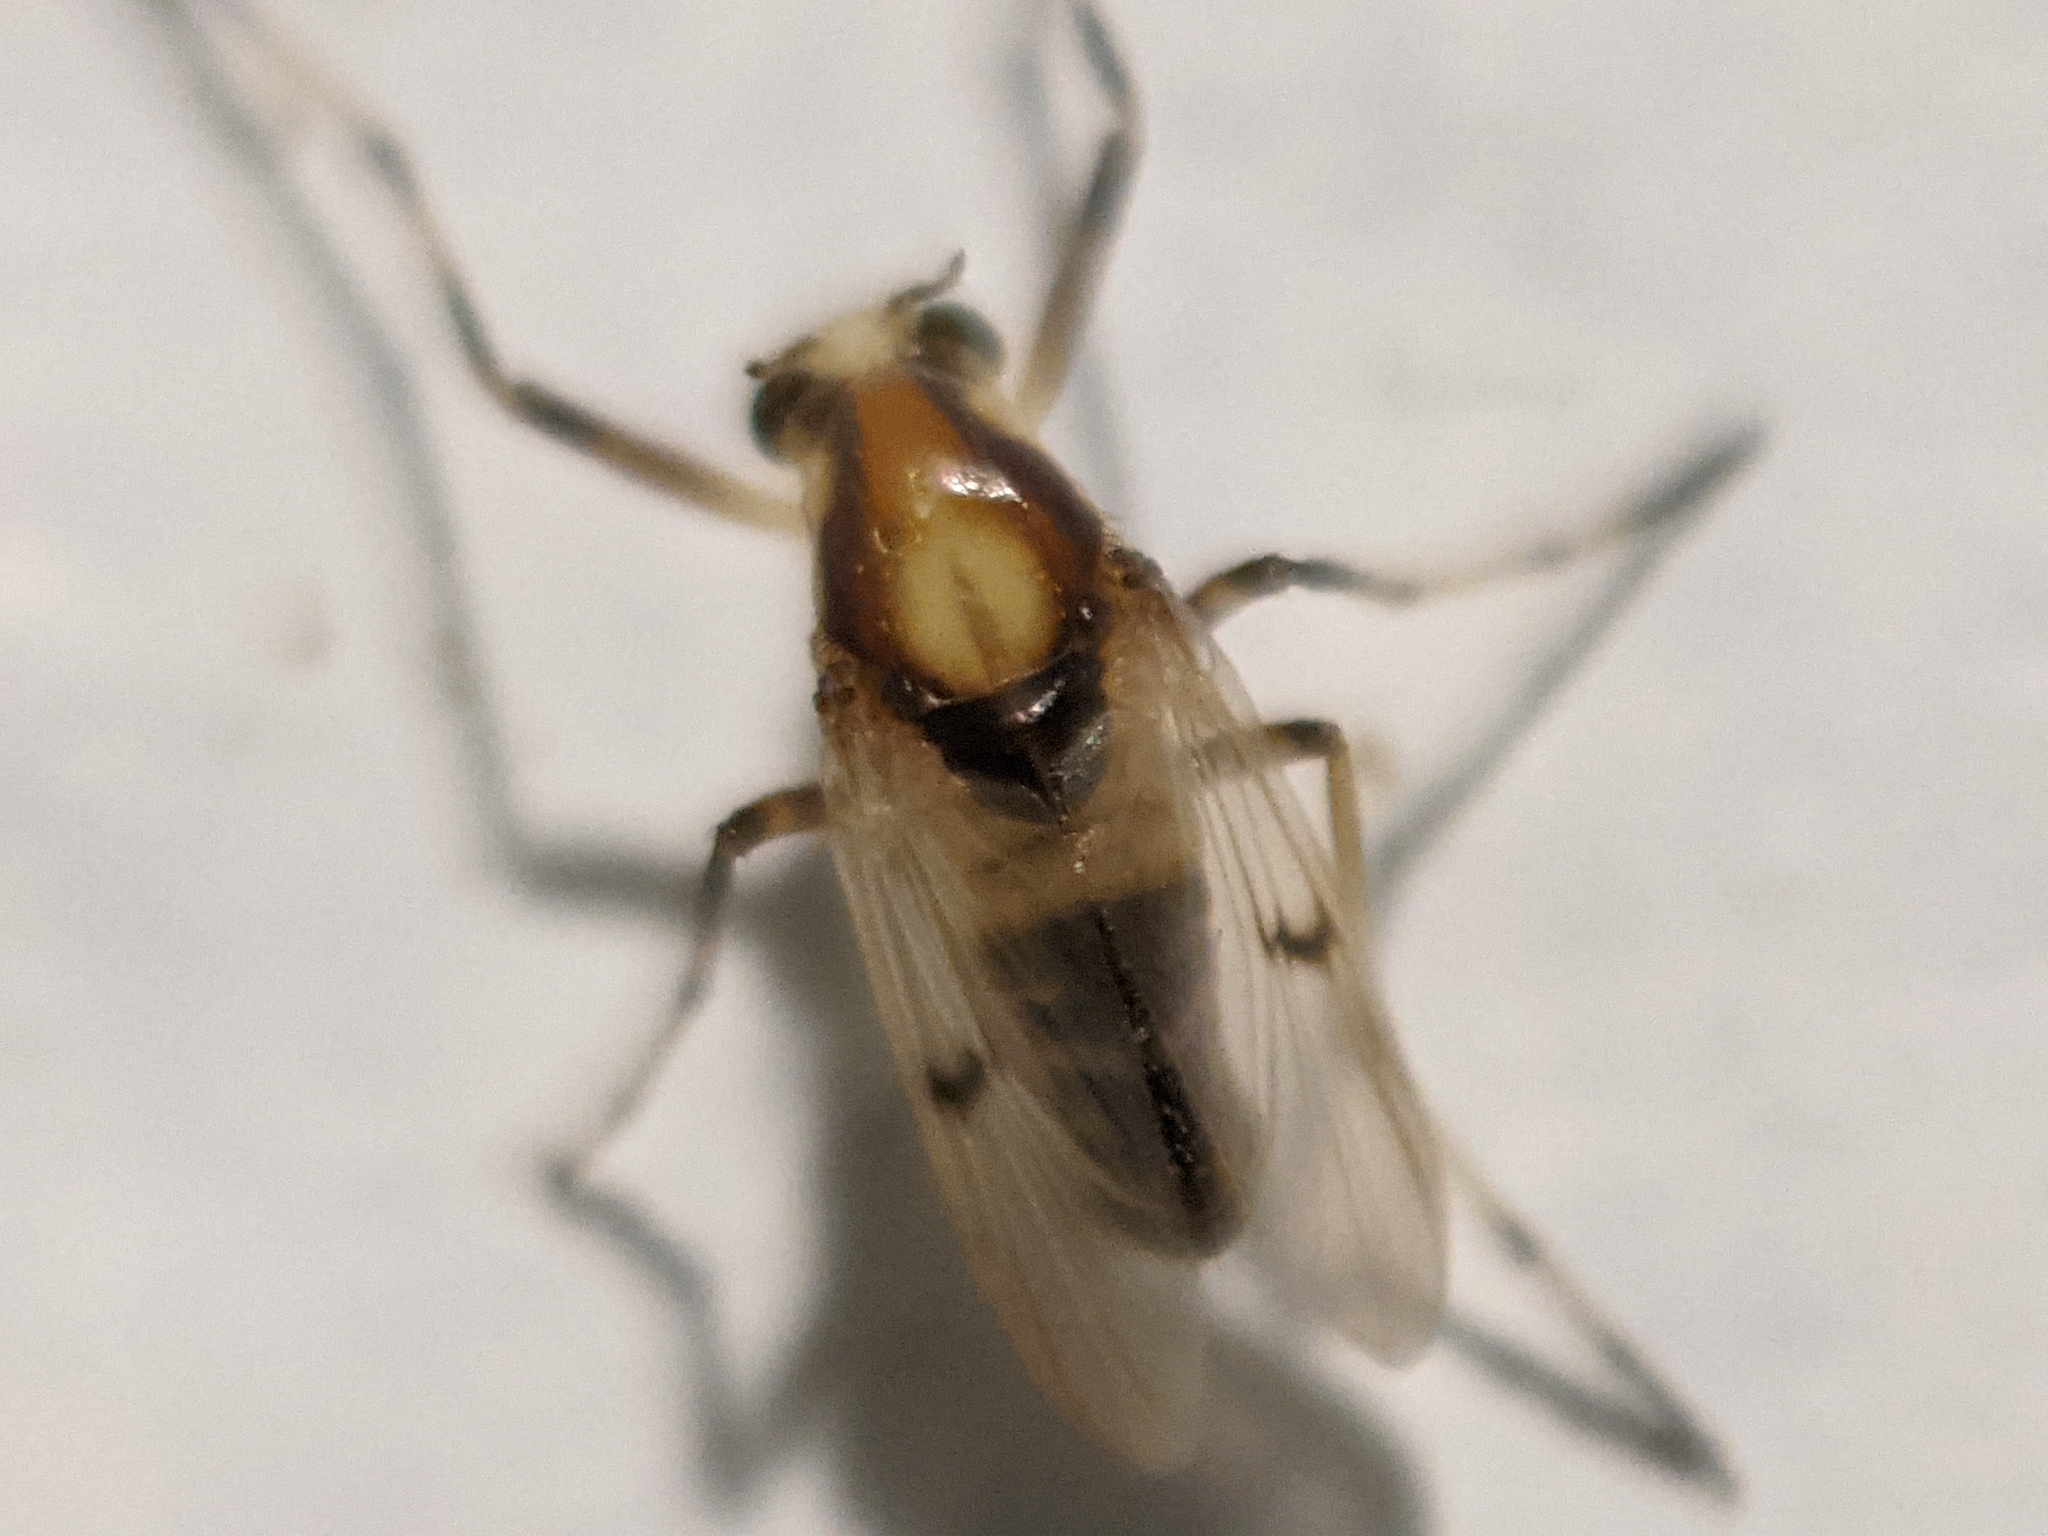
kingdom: Animalia
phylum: Arthropoda
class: Insecta
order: Diptera
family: Chironomidae
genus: Coelotanypus
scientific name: Coelotanypus tricolor
